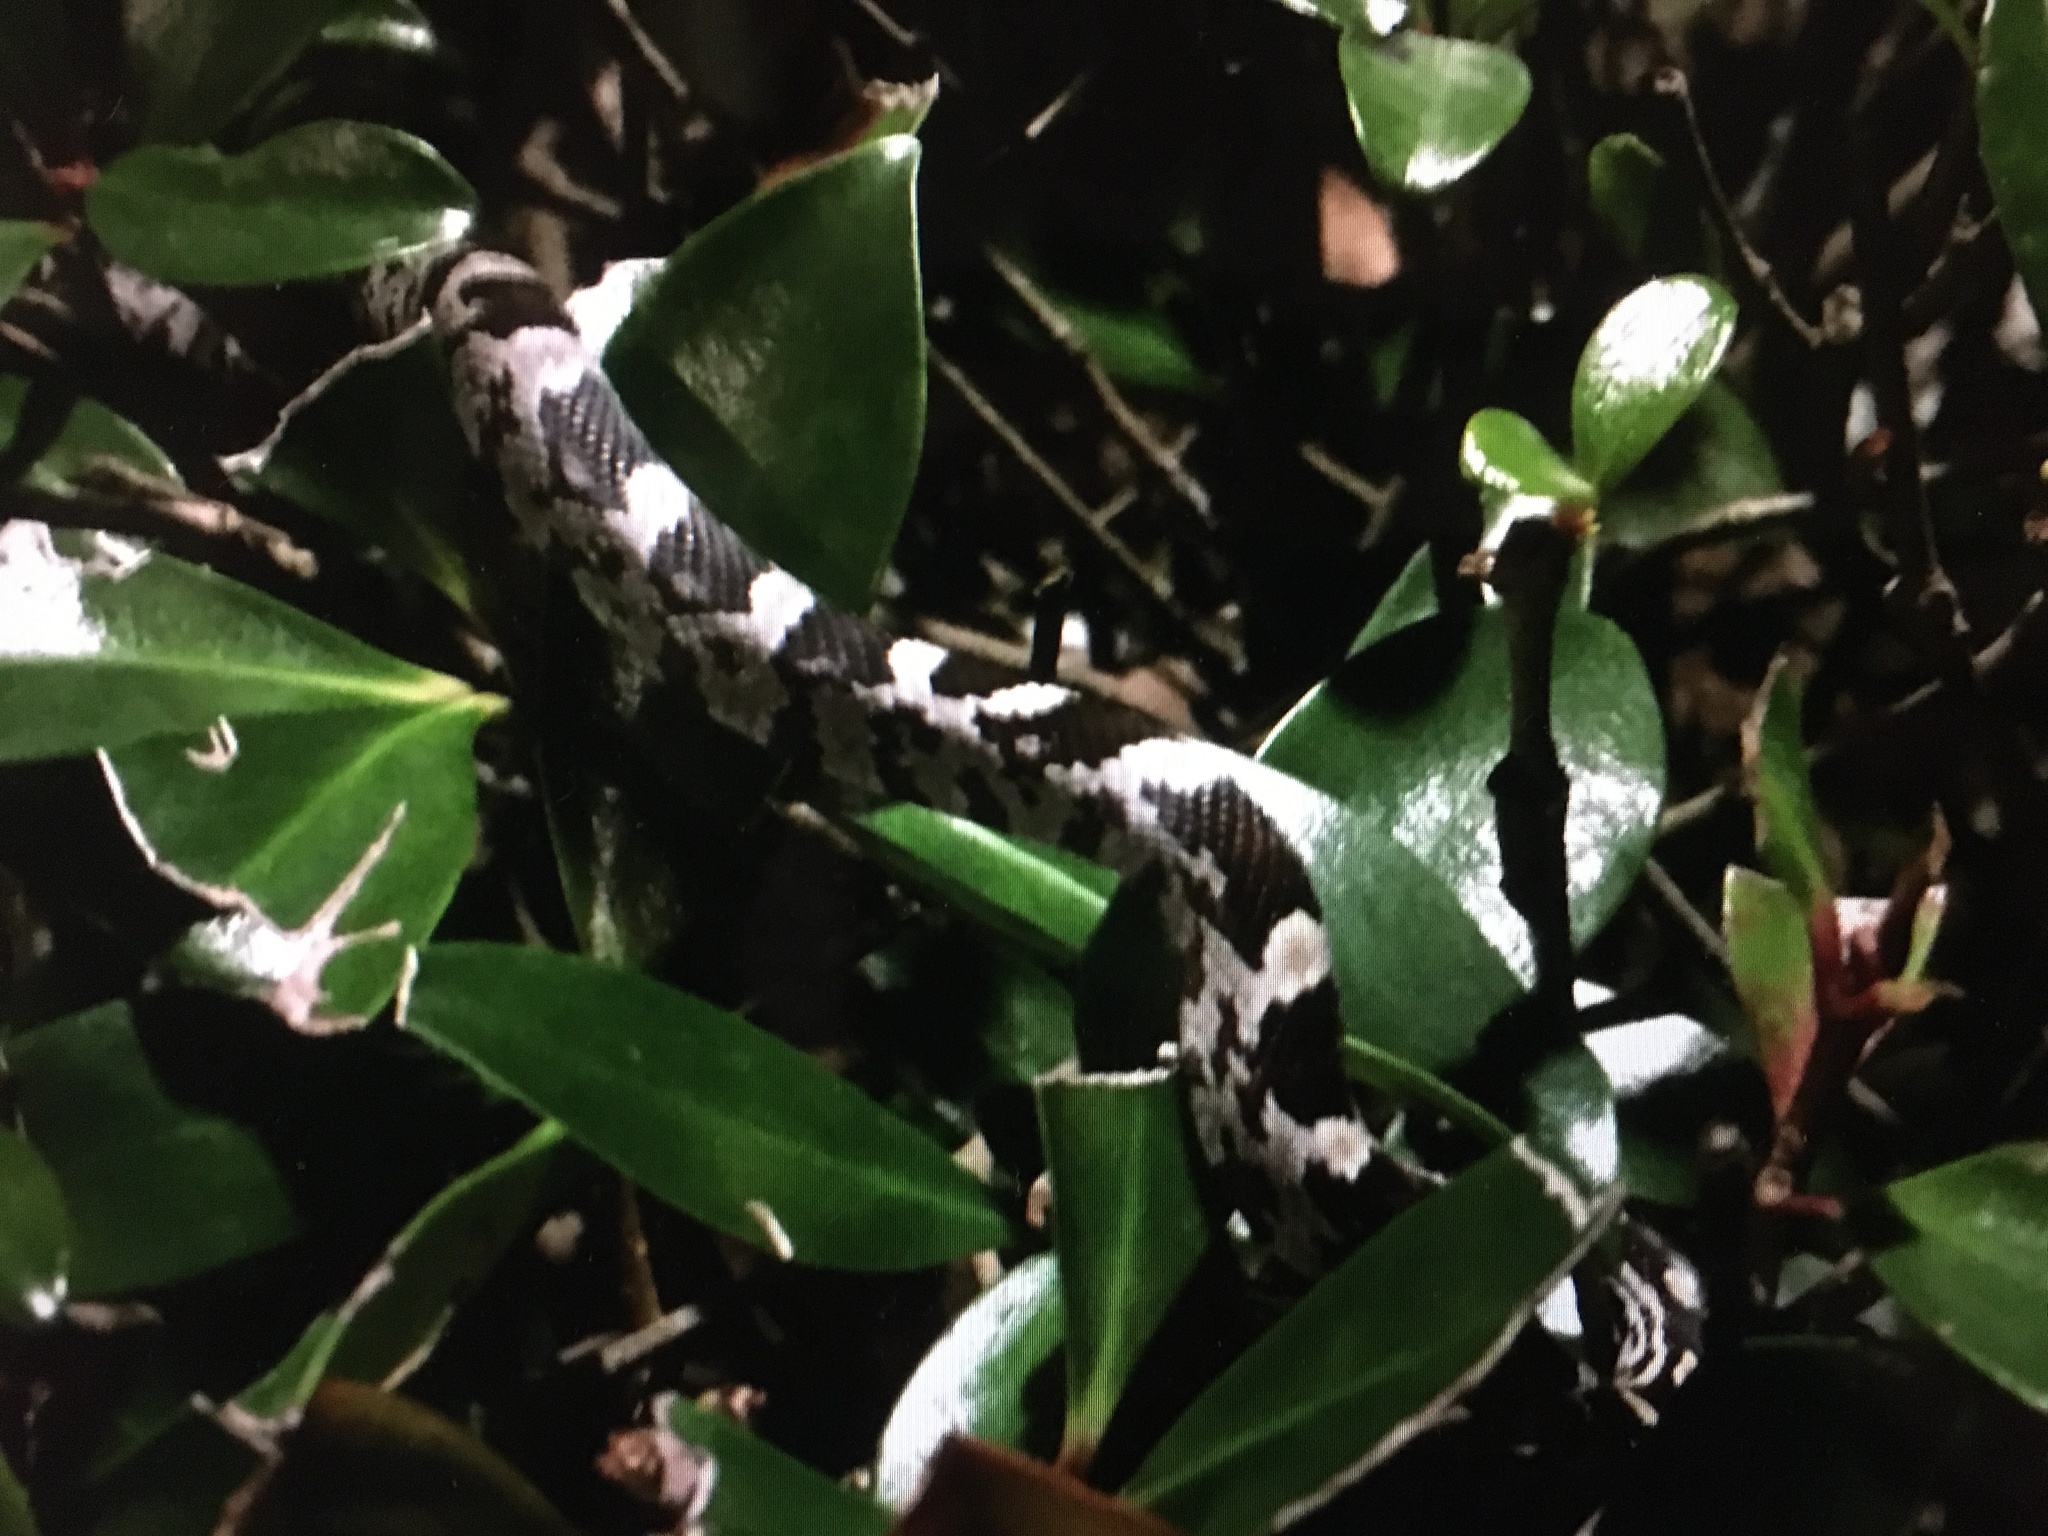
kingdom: Animalia
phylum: Chordata
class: Squamata
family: Colubridae
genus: Pantherophis
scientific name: Pantherophis guttatus
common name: Red cornsnake
